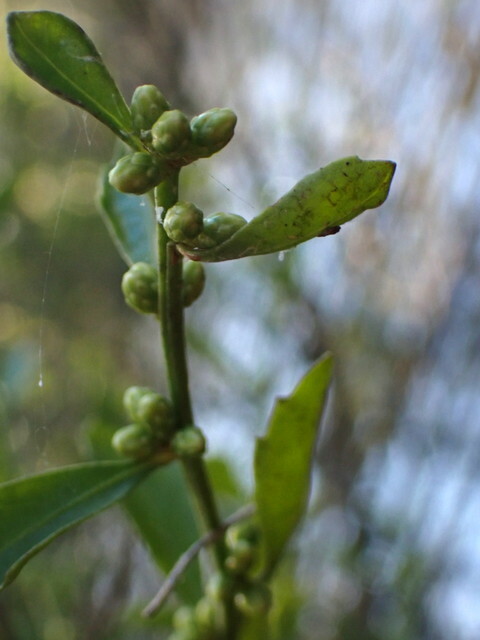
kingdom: Plantae
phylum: Tracheophyta
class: Magnoliopsida
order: Asterales
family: Asteraceae
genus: Baccharis
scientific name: Baccharis glomeruliflora
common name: Silverling groundsel bush
